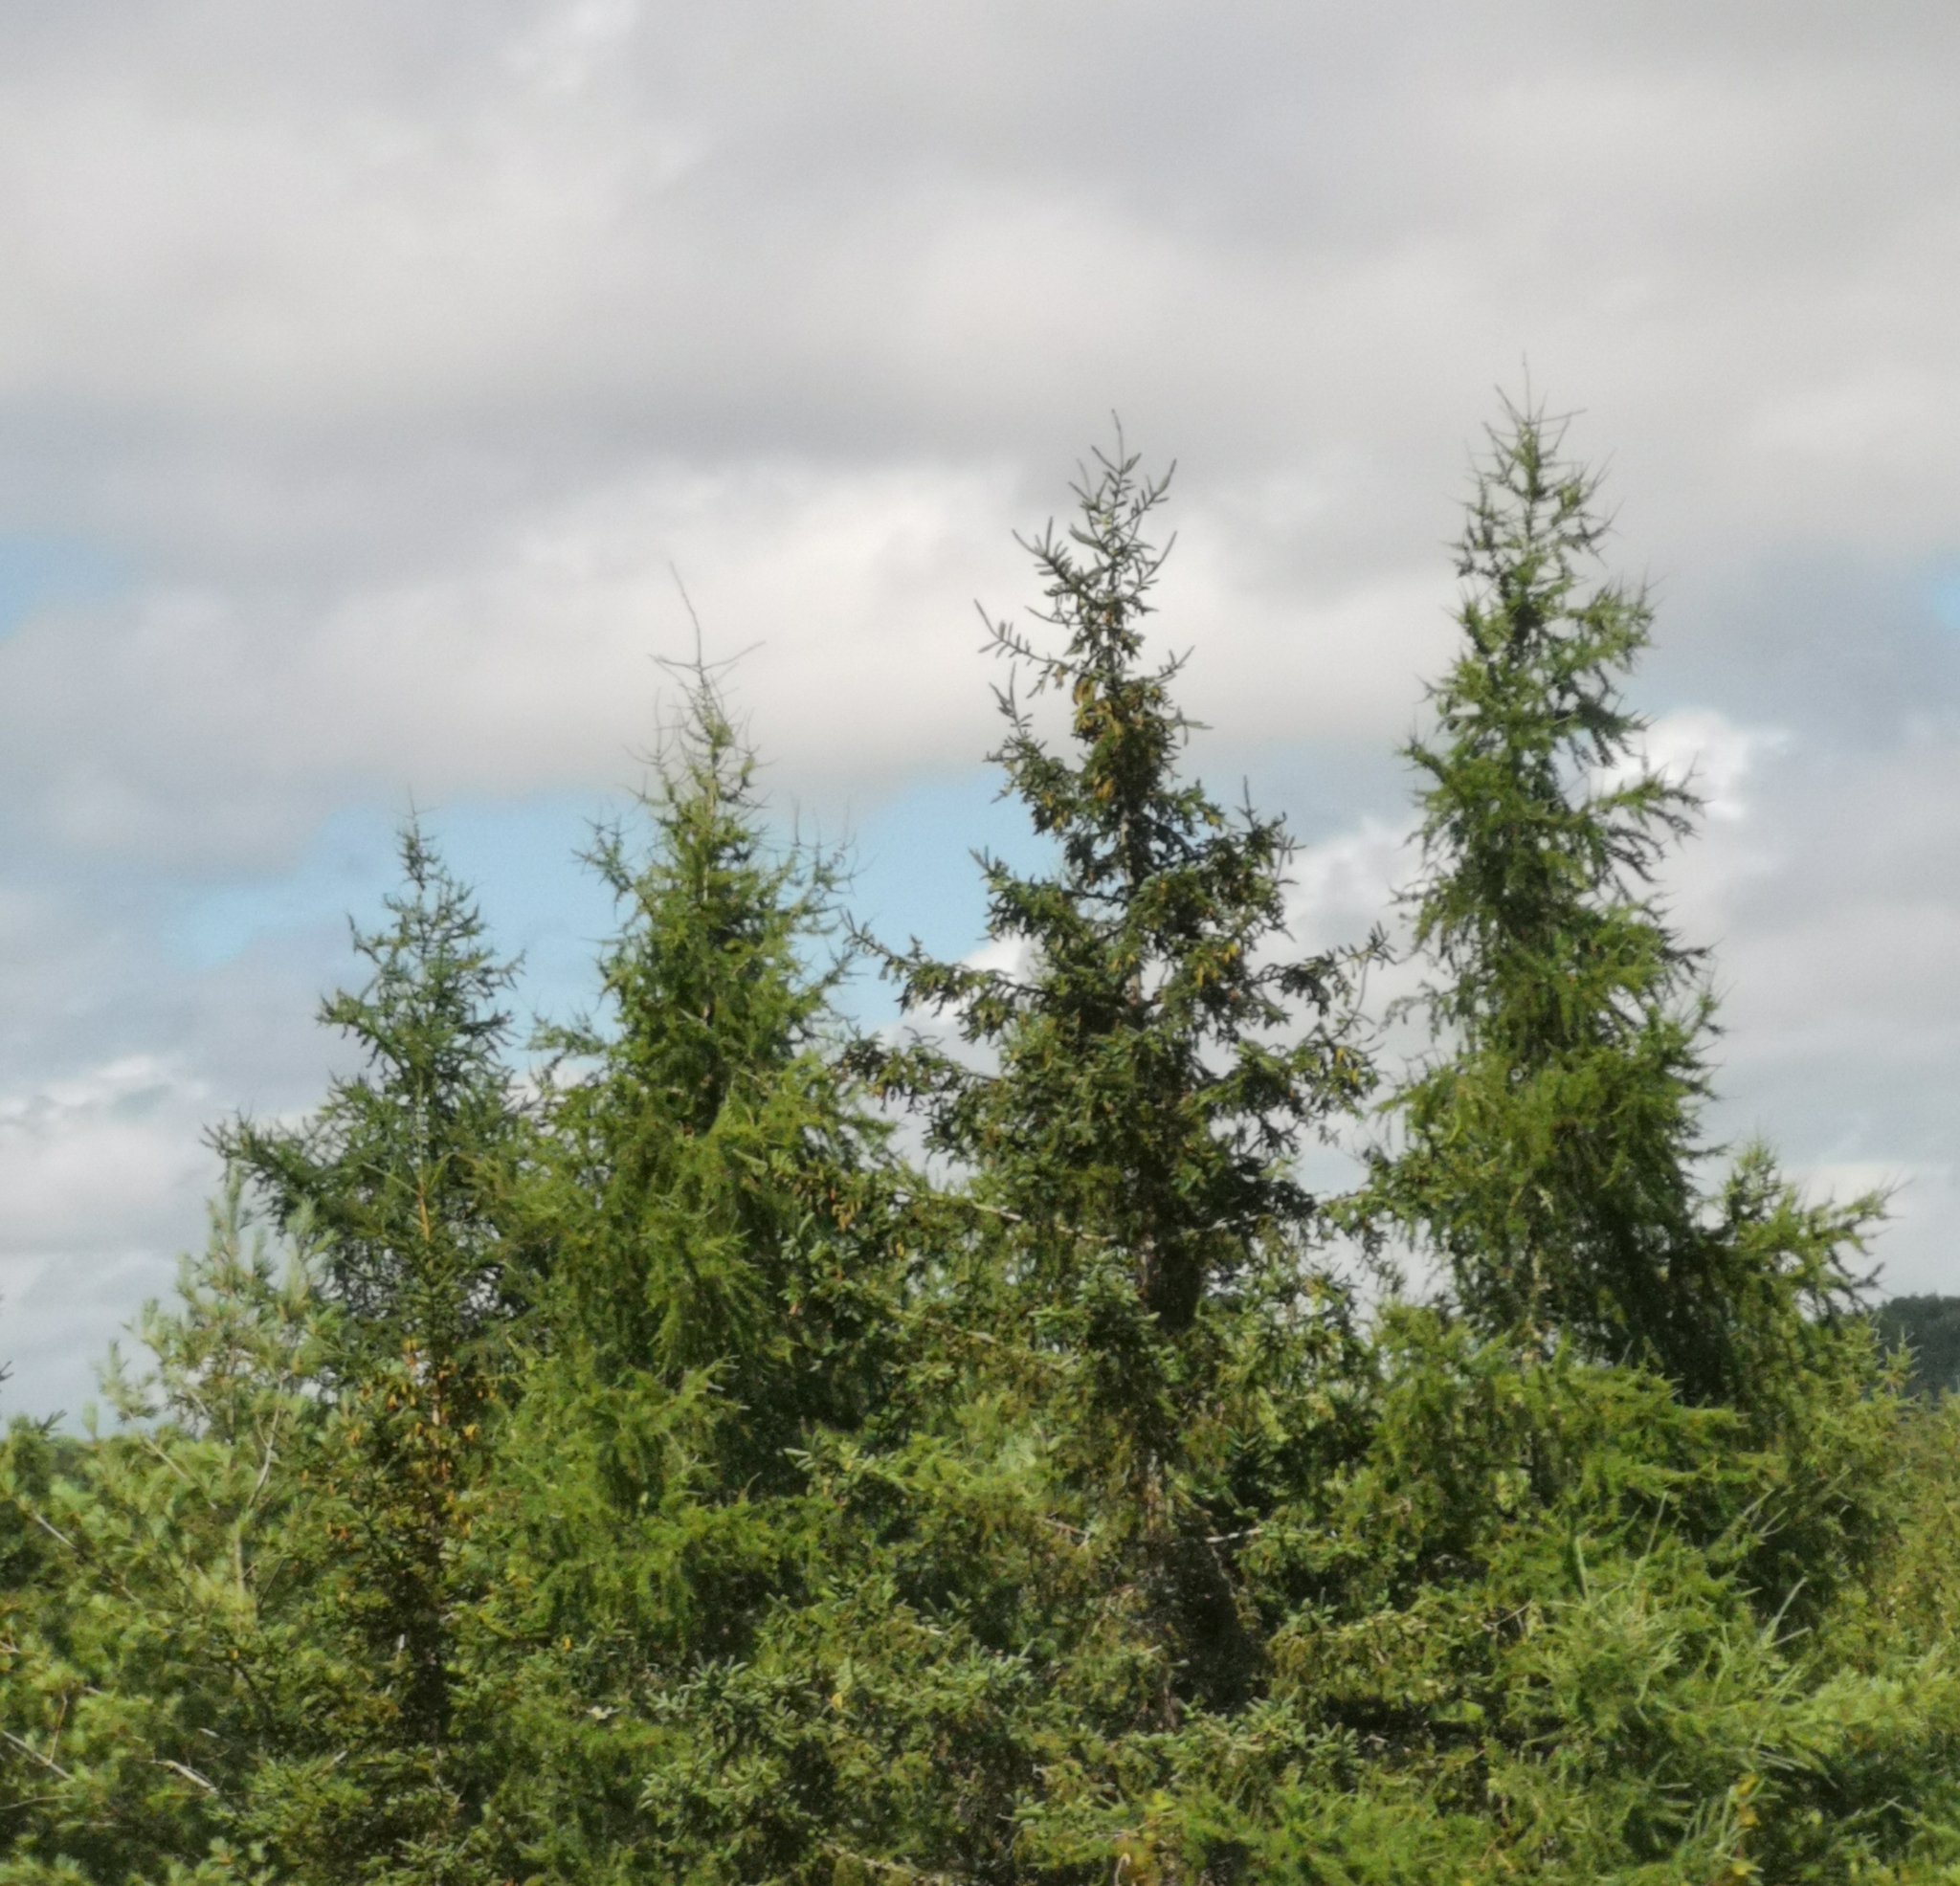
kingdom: Plantae
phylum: Tracheophyta
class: Pinopsida
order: Pinales
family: Pinaceae
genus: Larix
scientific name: Larix laricina
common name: American larch
